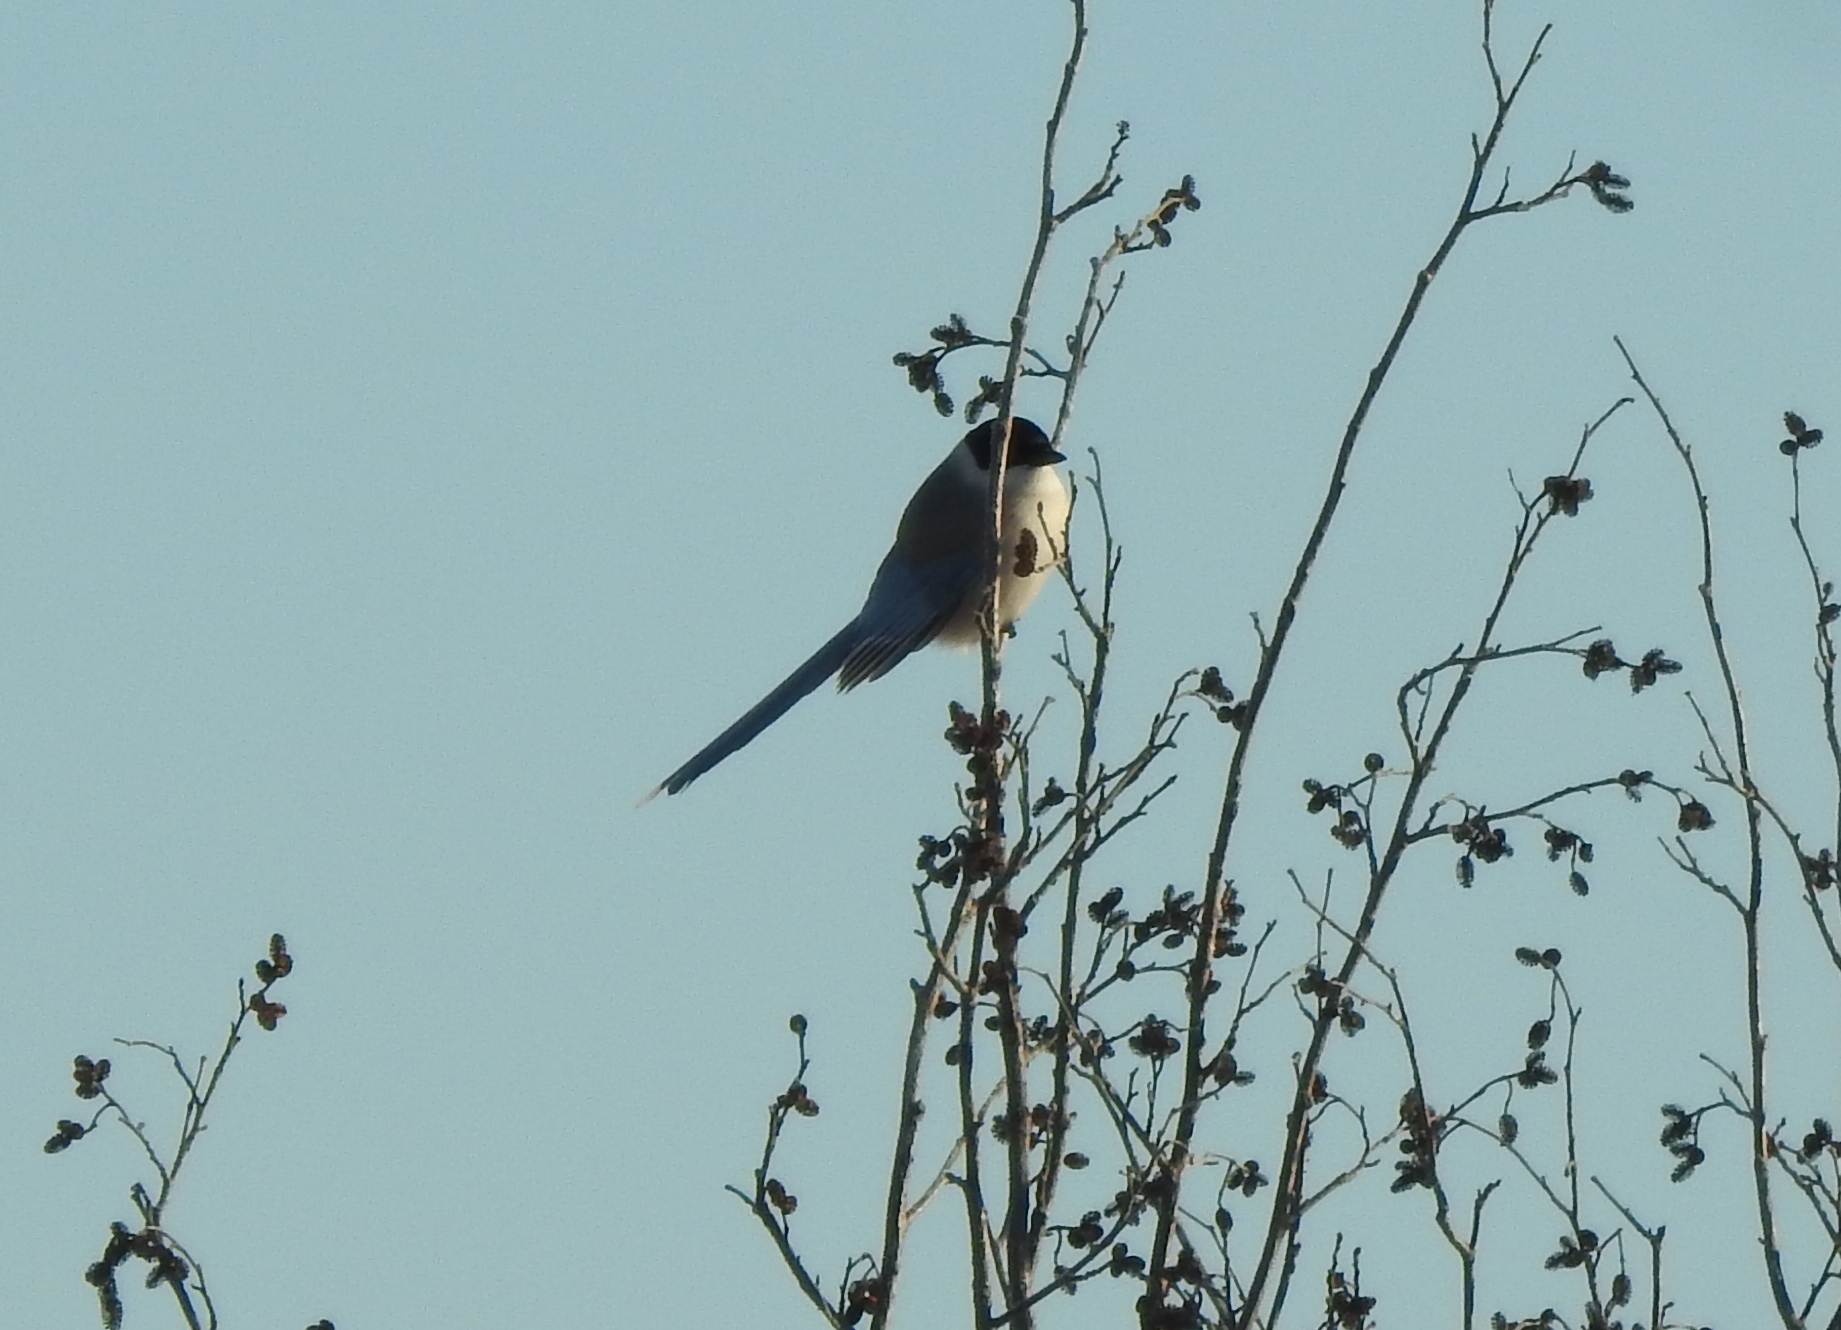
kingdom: Animalia
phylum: Chordata
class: Aves
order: Passeriformes
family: Corvidae
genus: Cyanopica
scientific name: Cyanopica cyanus
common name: Azure-winged magpie
